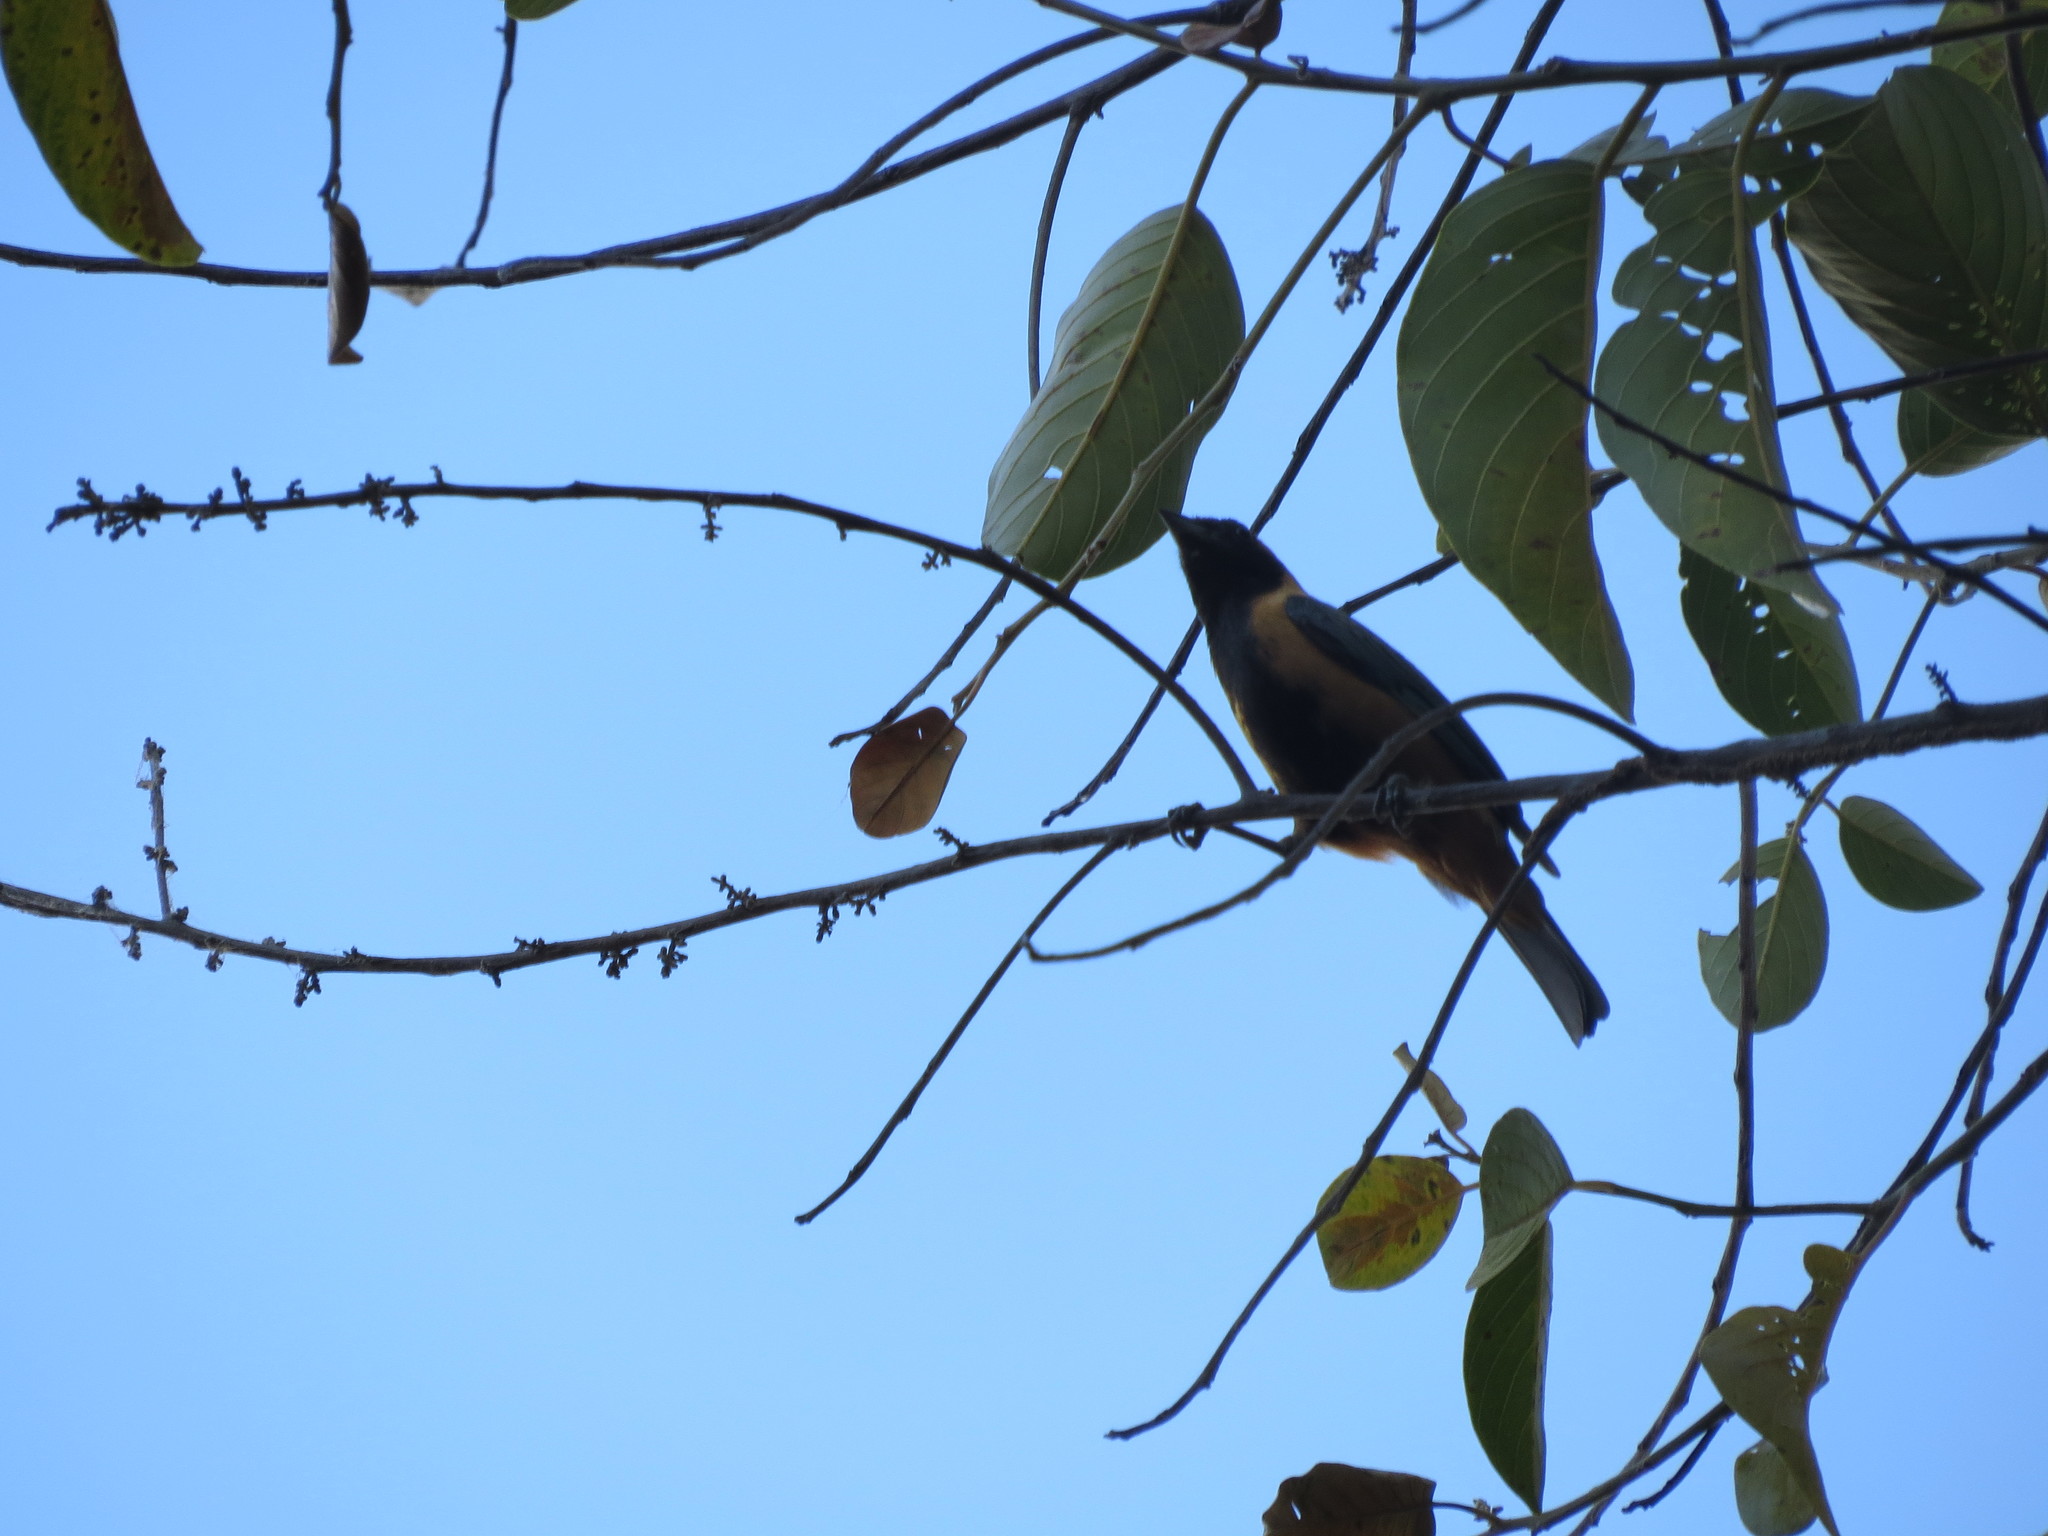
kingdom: Animalia
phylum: Chordata
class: Aves
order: Passeriformes
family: Thraupidae
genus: Stilpnia
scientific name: Stilpnia cayana
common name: Burnished-buff tanager
